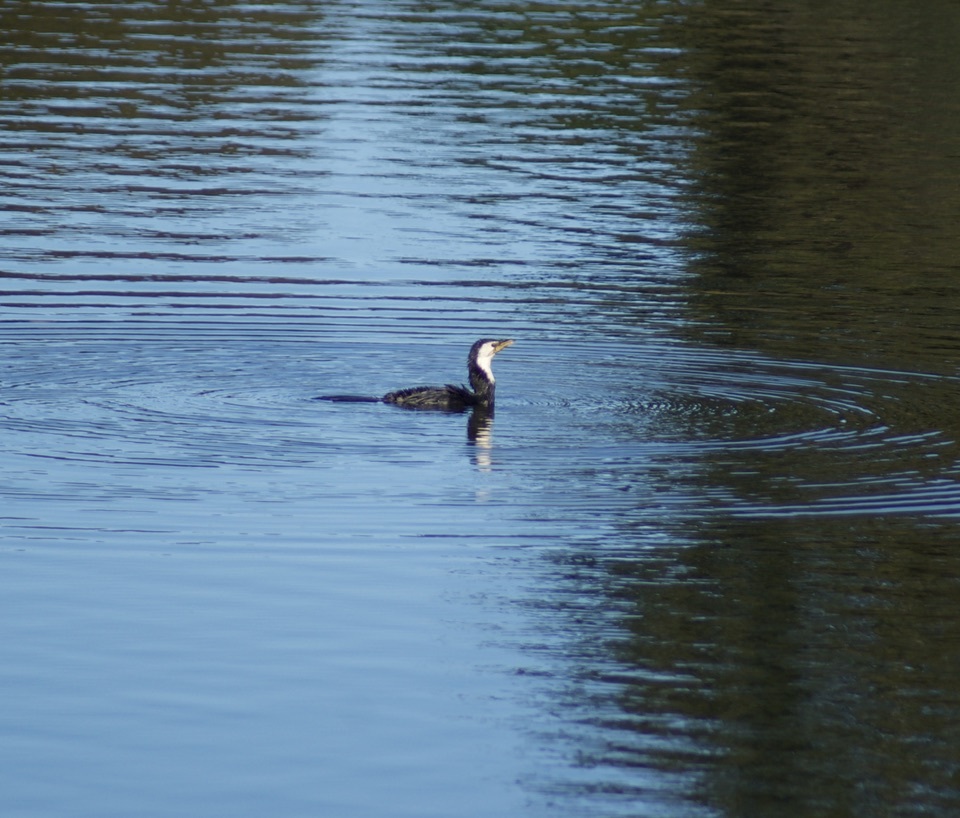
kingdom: Animalia
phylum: Chordata
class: Aves
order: Suliformes
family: Phalacrocoracidae
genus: Microcarbo
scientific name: Microcarbo melanoleucos
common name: Little pied cormorant
